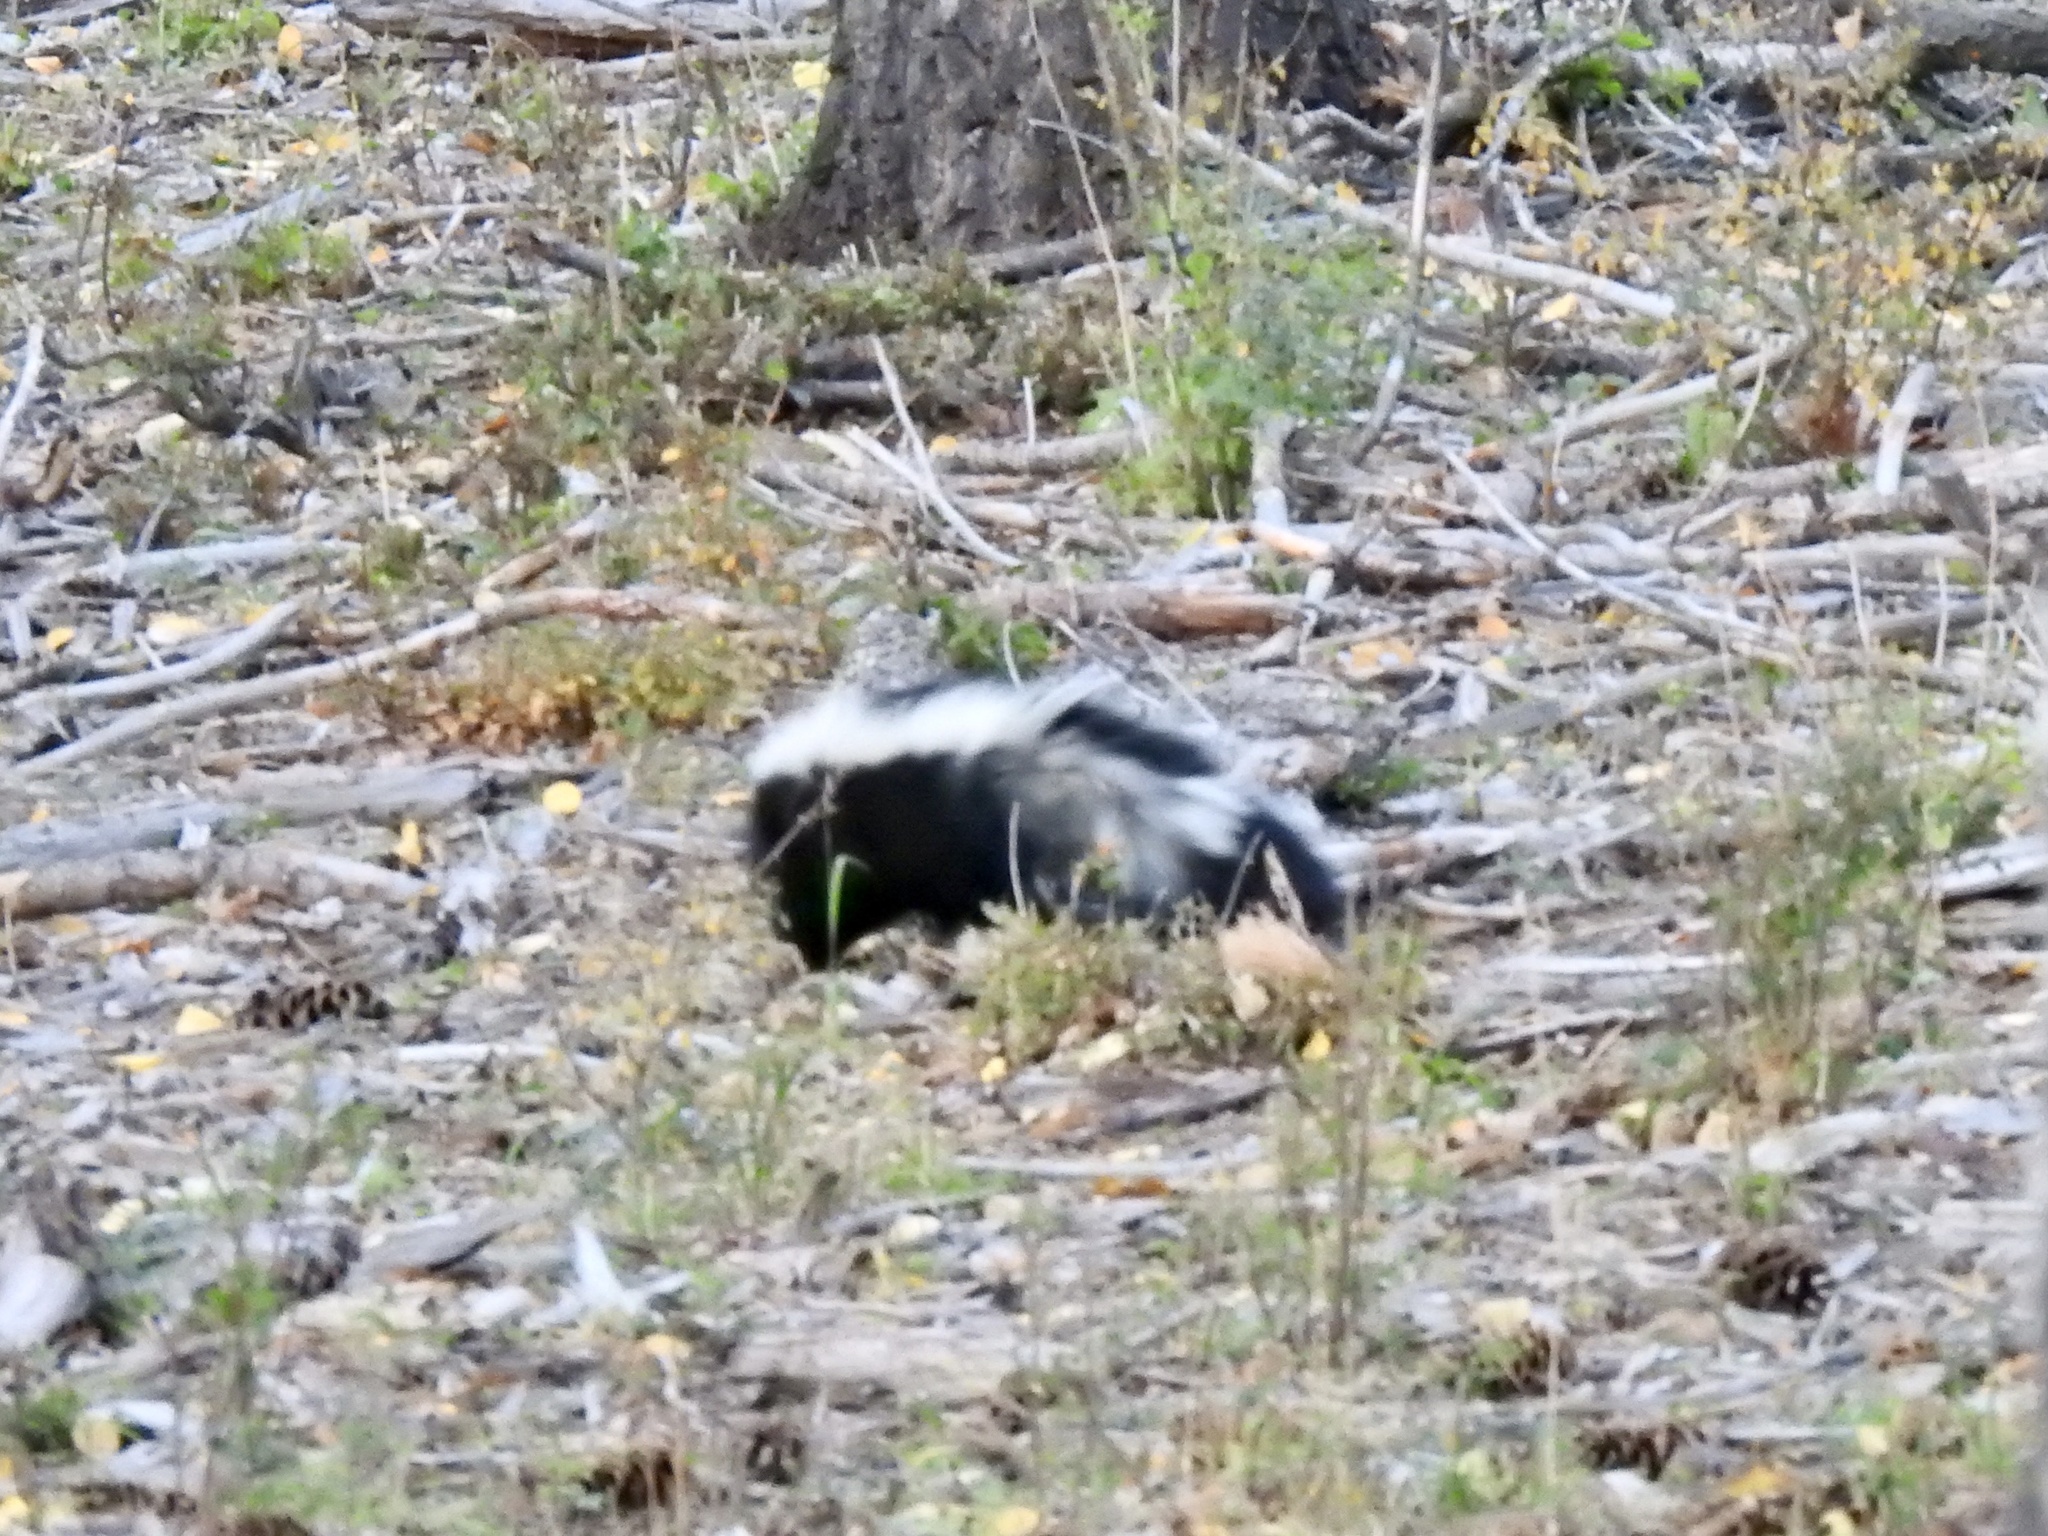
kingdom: Animalia
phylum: Chordata
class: Mammalia
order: Carnivora
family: Mephitidae
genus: Mephitis
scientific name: Mephitis mephitis
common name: Striped skunk
